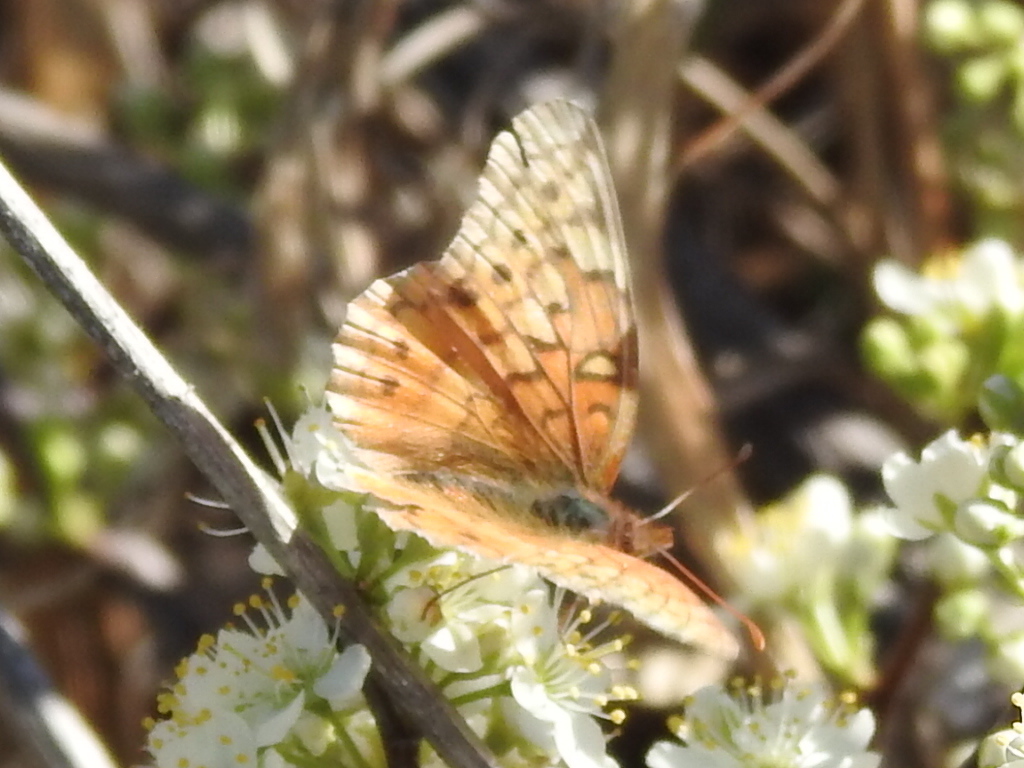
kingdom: Animalia
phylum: Arthropoda
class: Insecta
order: Lepidoptera
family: Nymphalidae
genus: Euptoieta
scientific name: Euptoieta claudia
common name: Variegated fritillary
